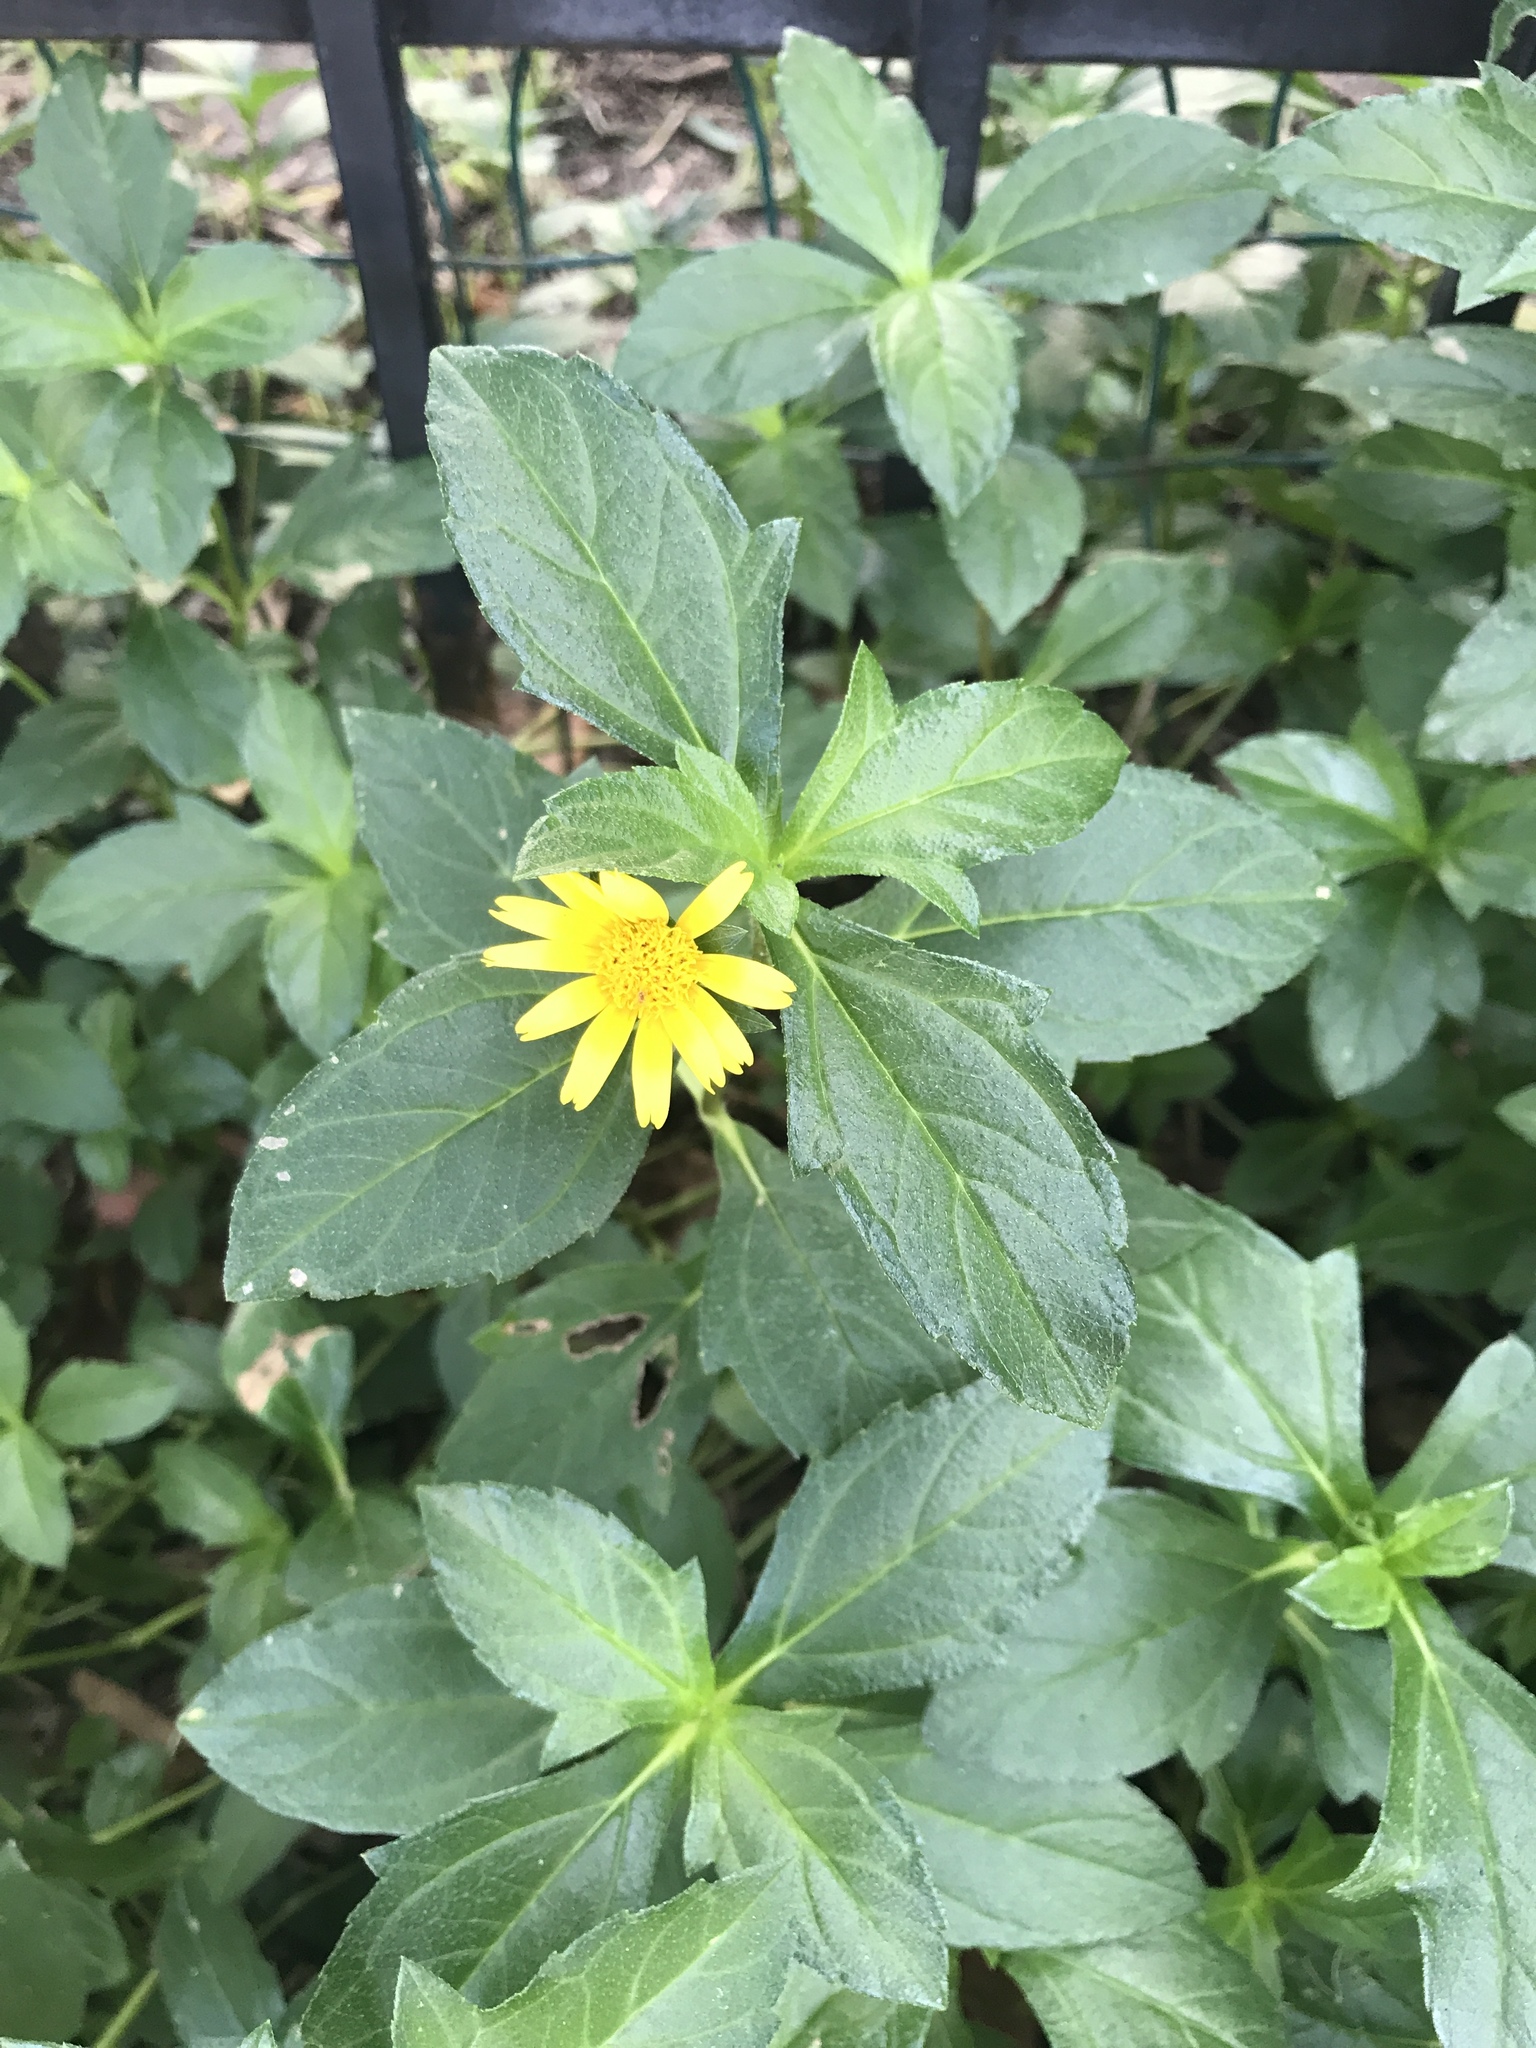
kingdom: Plantae
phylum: Tracheophyta
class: Magnoliopsida
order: Asterales
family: Asteraceae
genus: Sphagneticola
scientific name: Sphagneticola trilobata
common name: Bay biscayne creeping-oxeye
